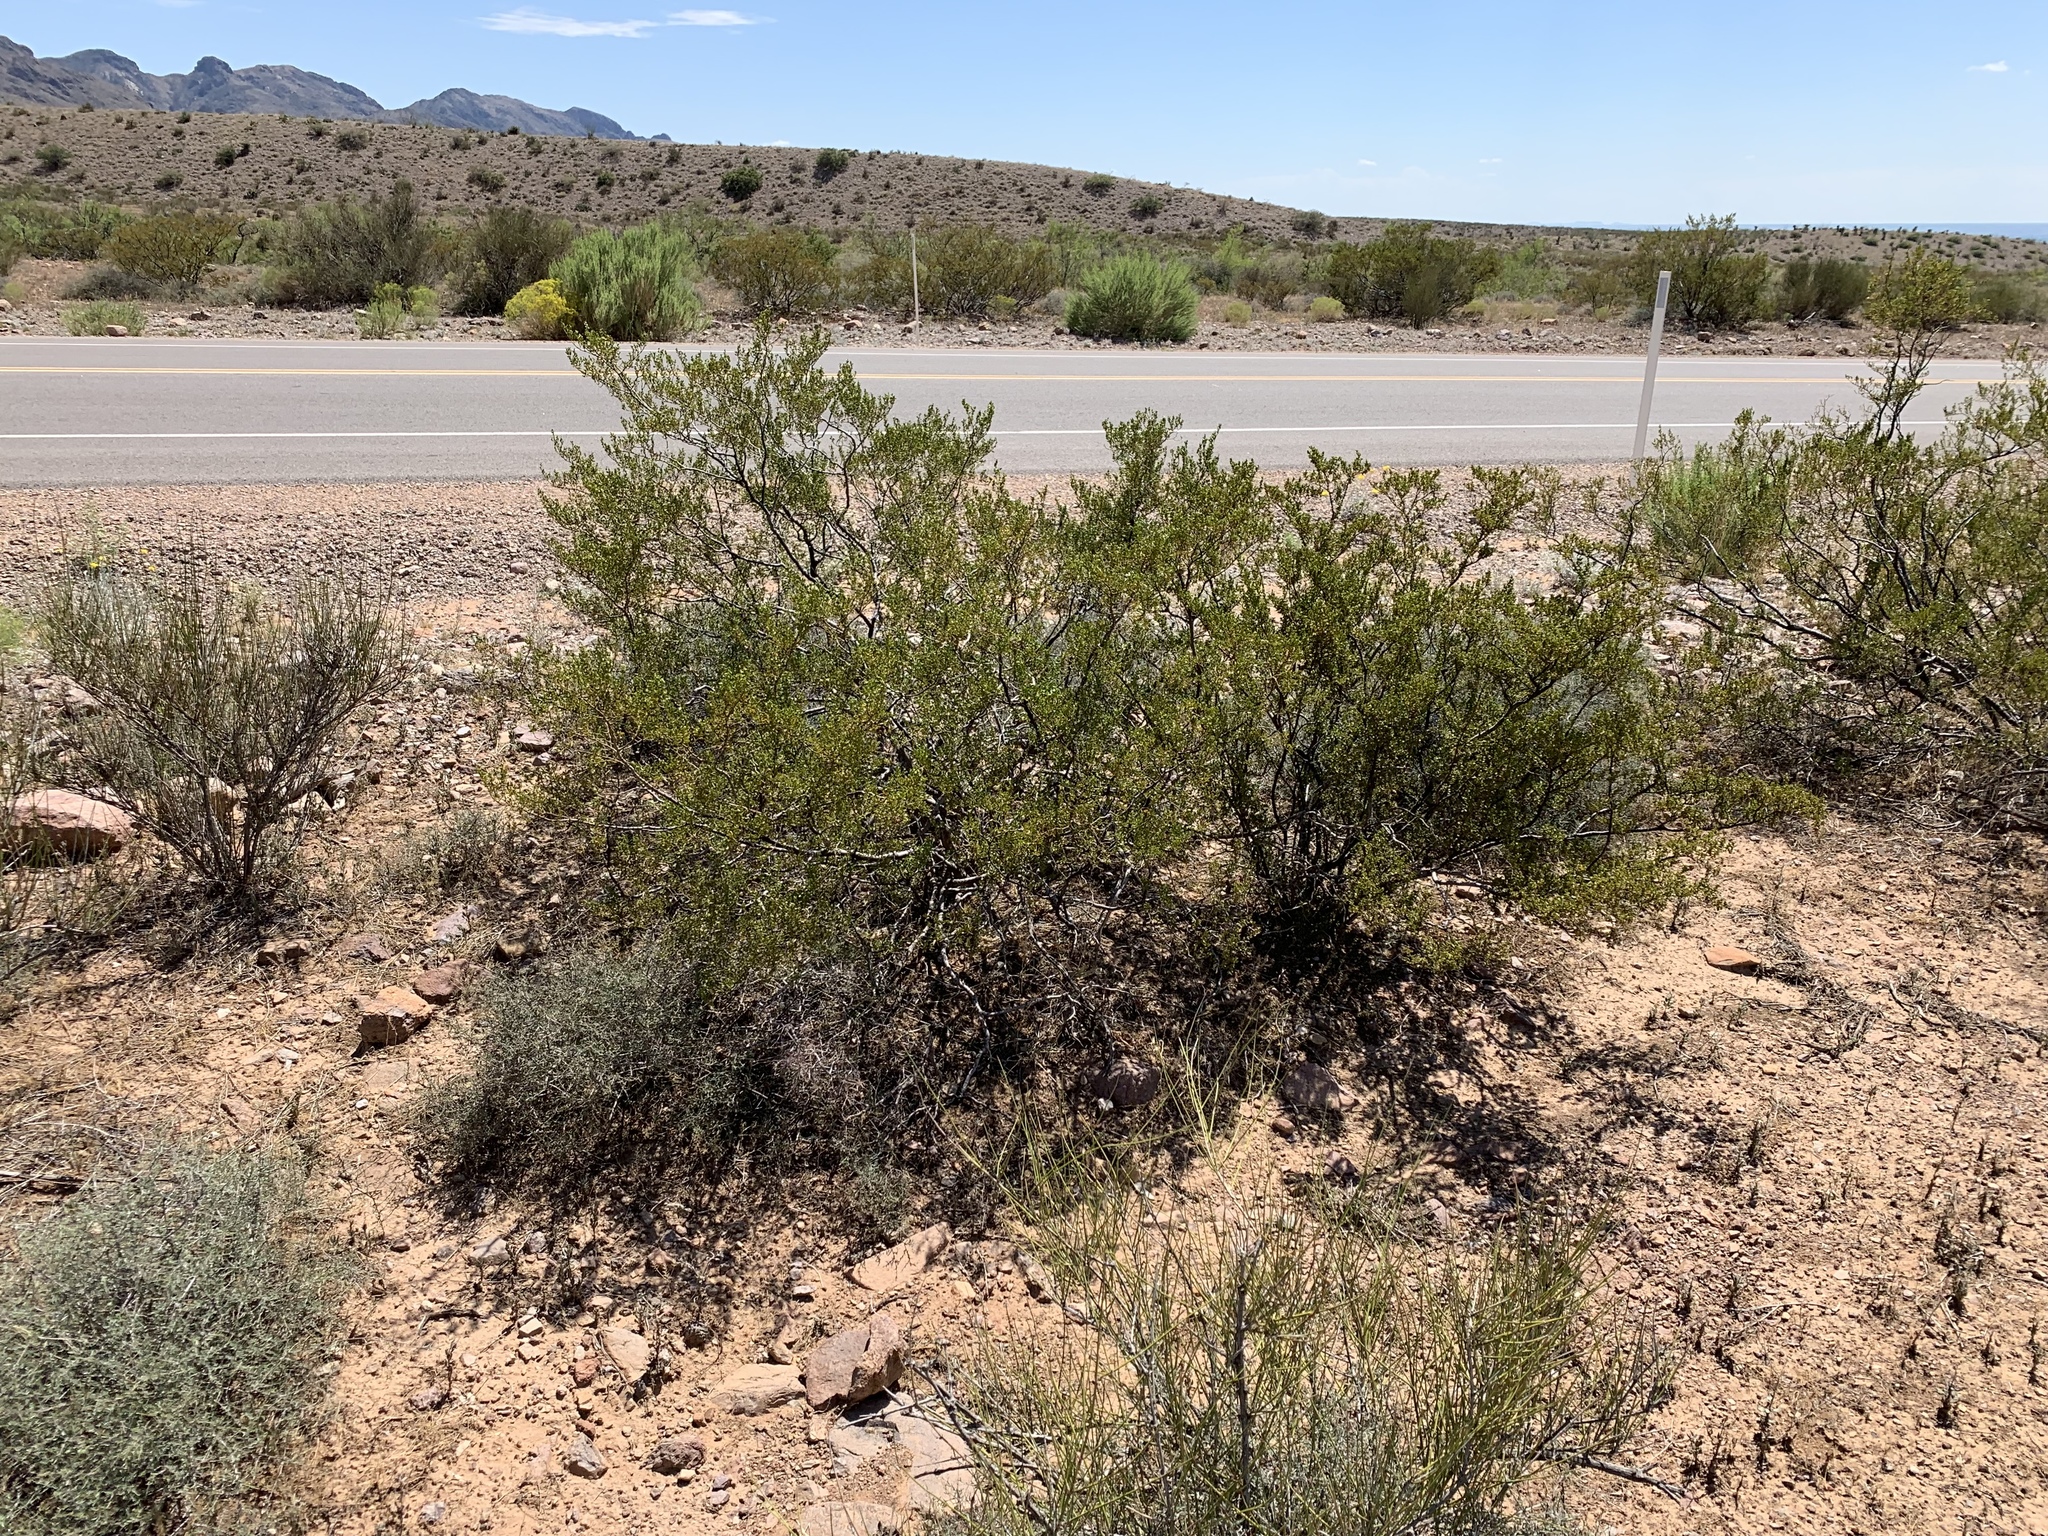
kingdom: Plantae
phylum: Tracheophyta
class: Magnoliopsida
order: Zygophyllales
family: Zygophyllaceae
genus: Larrea
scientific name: Larrea tridentata
